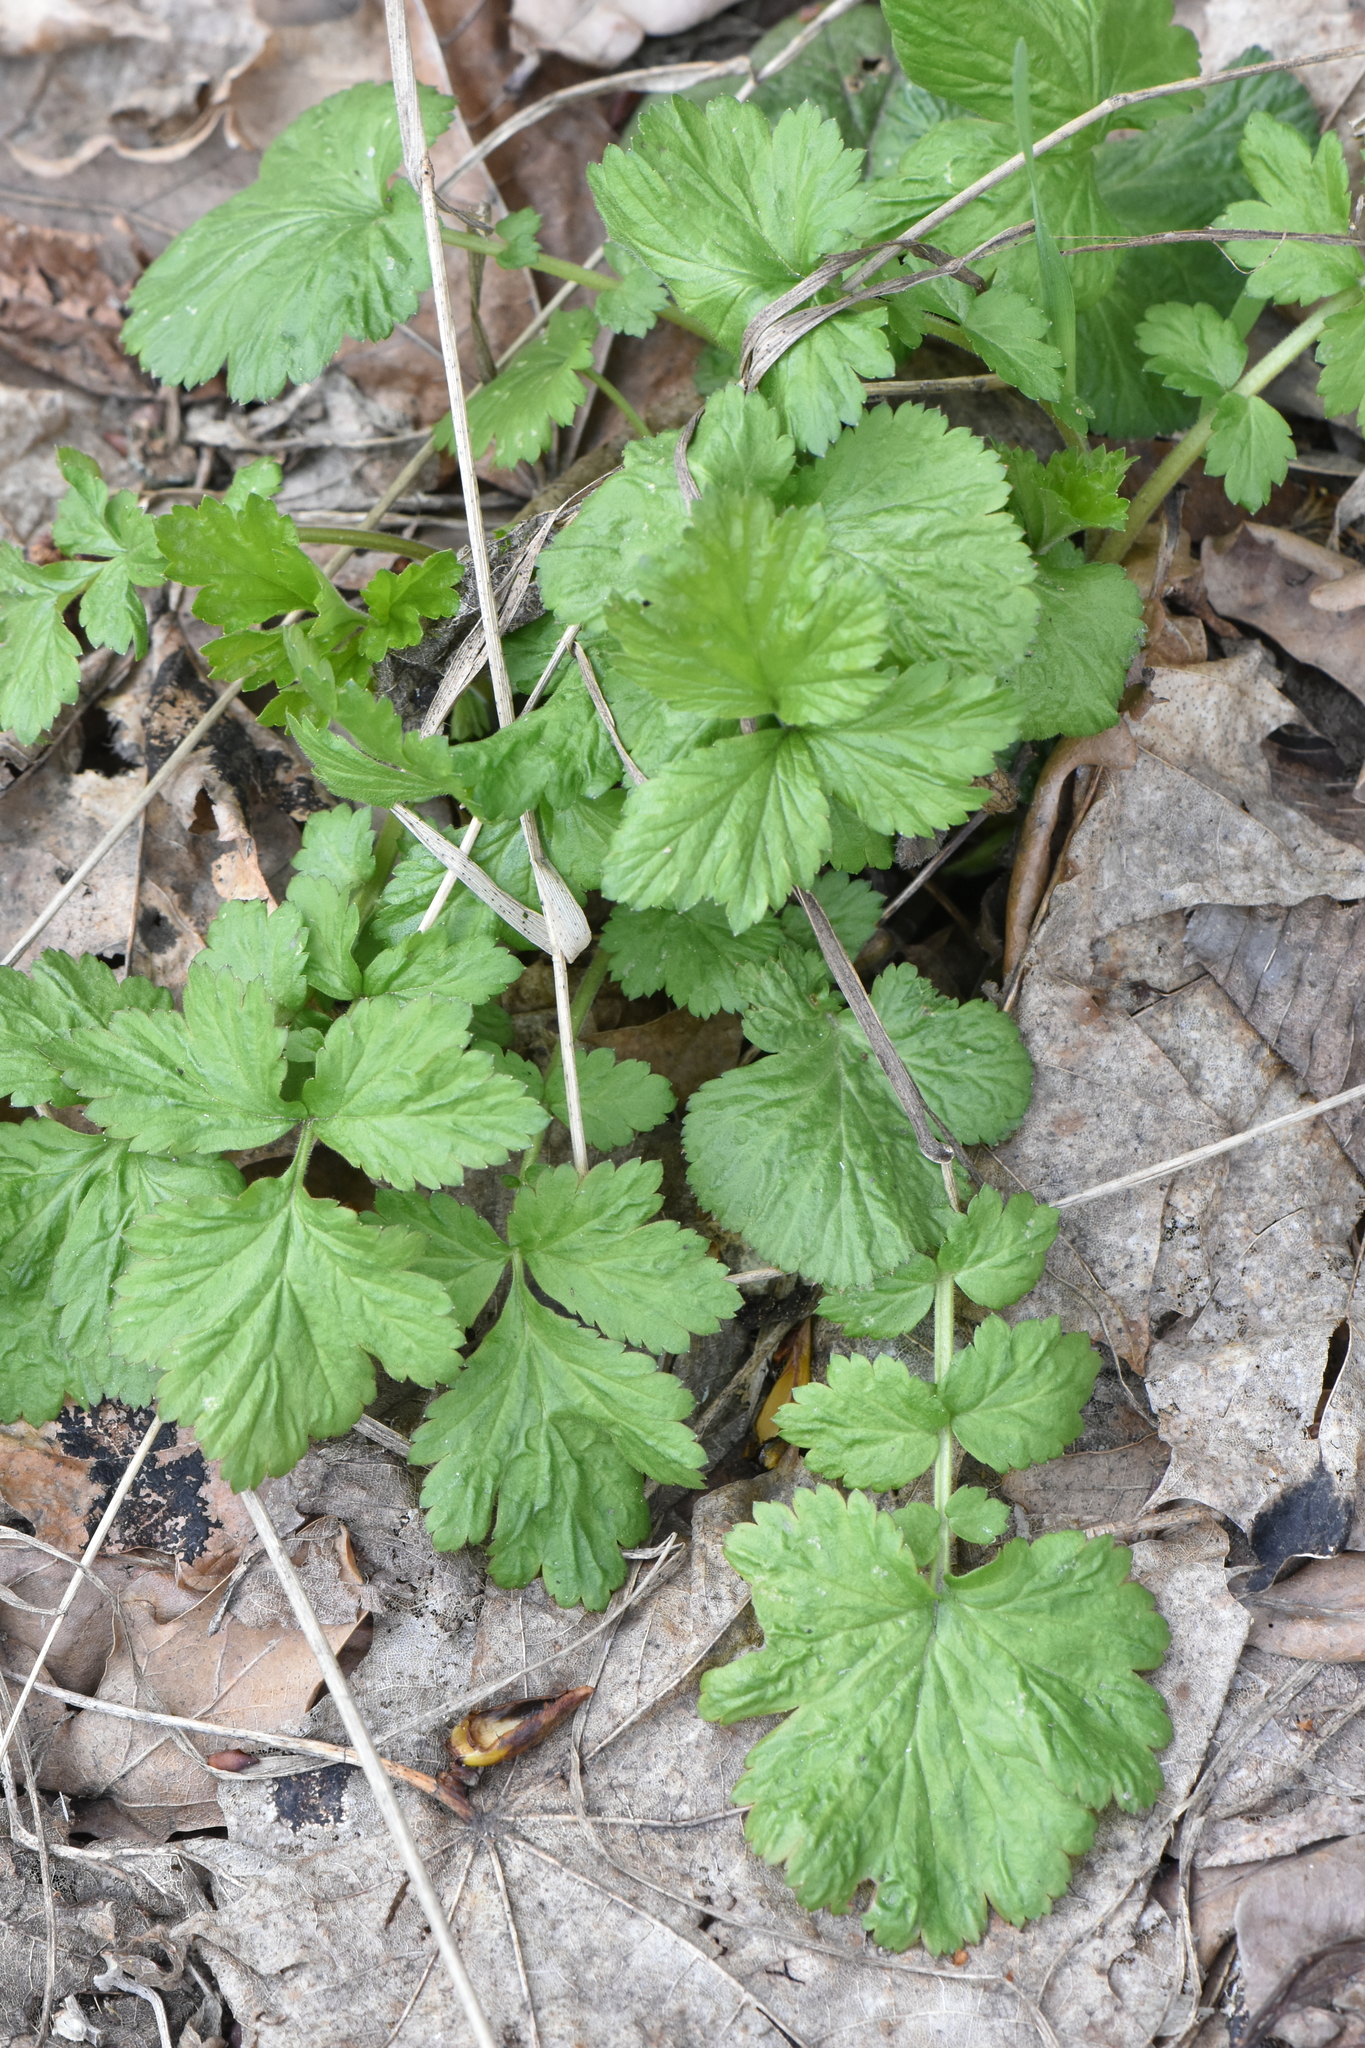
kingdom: Plantae
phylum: Tracheophyta
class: Magnoliopsida
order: Rosales
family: Rosaceae
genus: Geum
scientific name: Geum urbanum
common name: Wood avens
